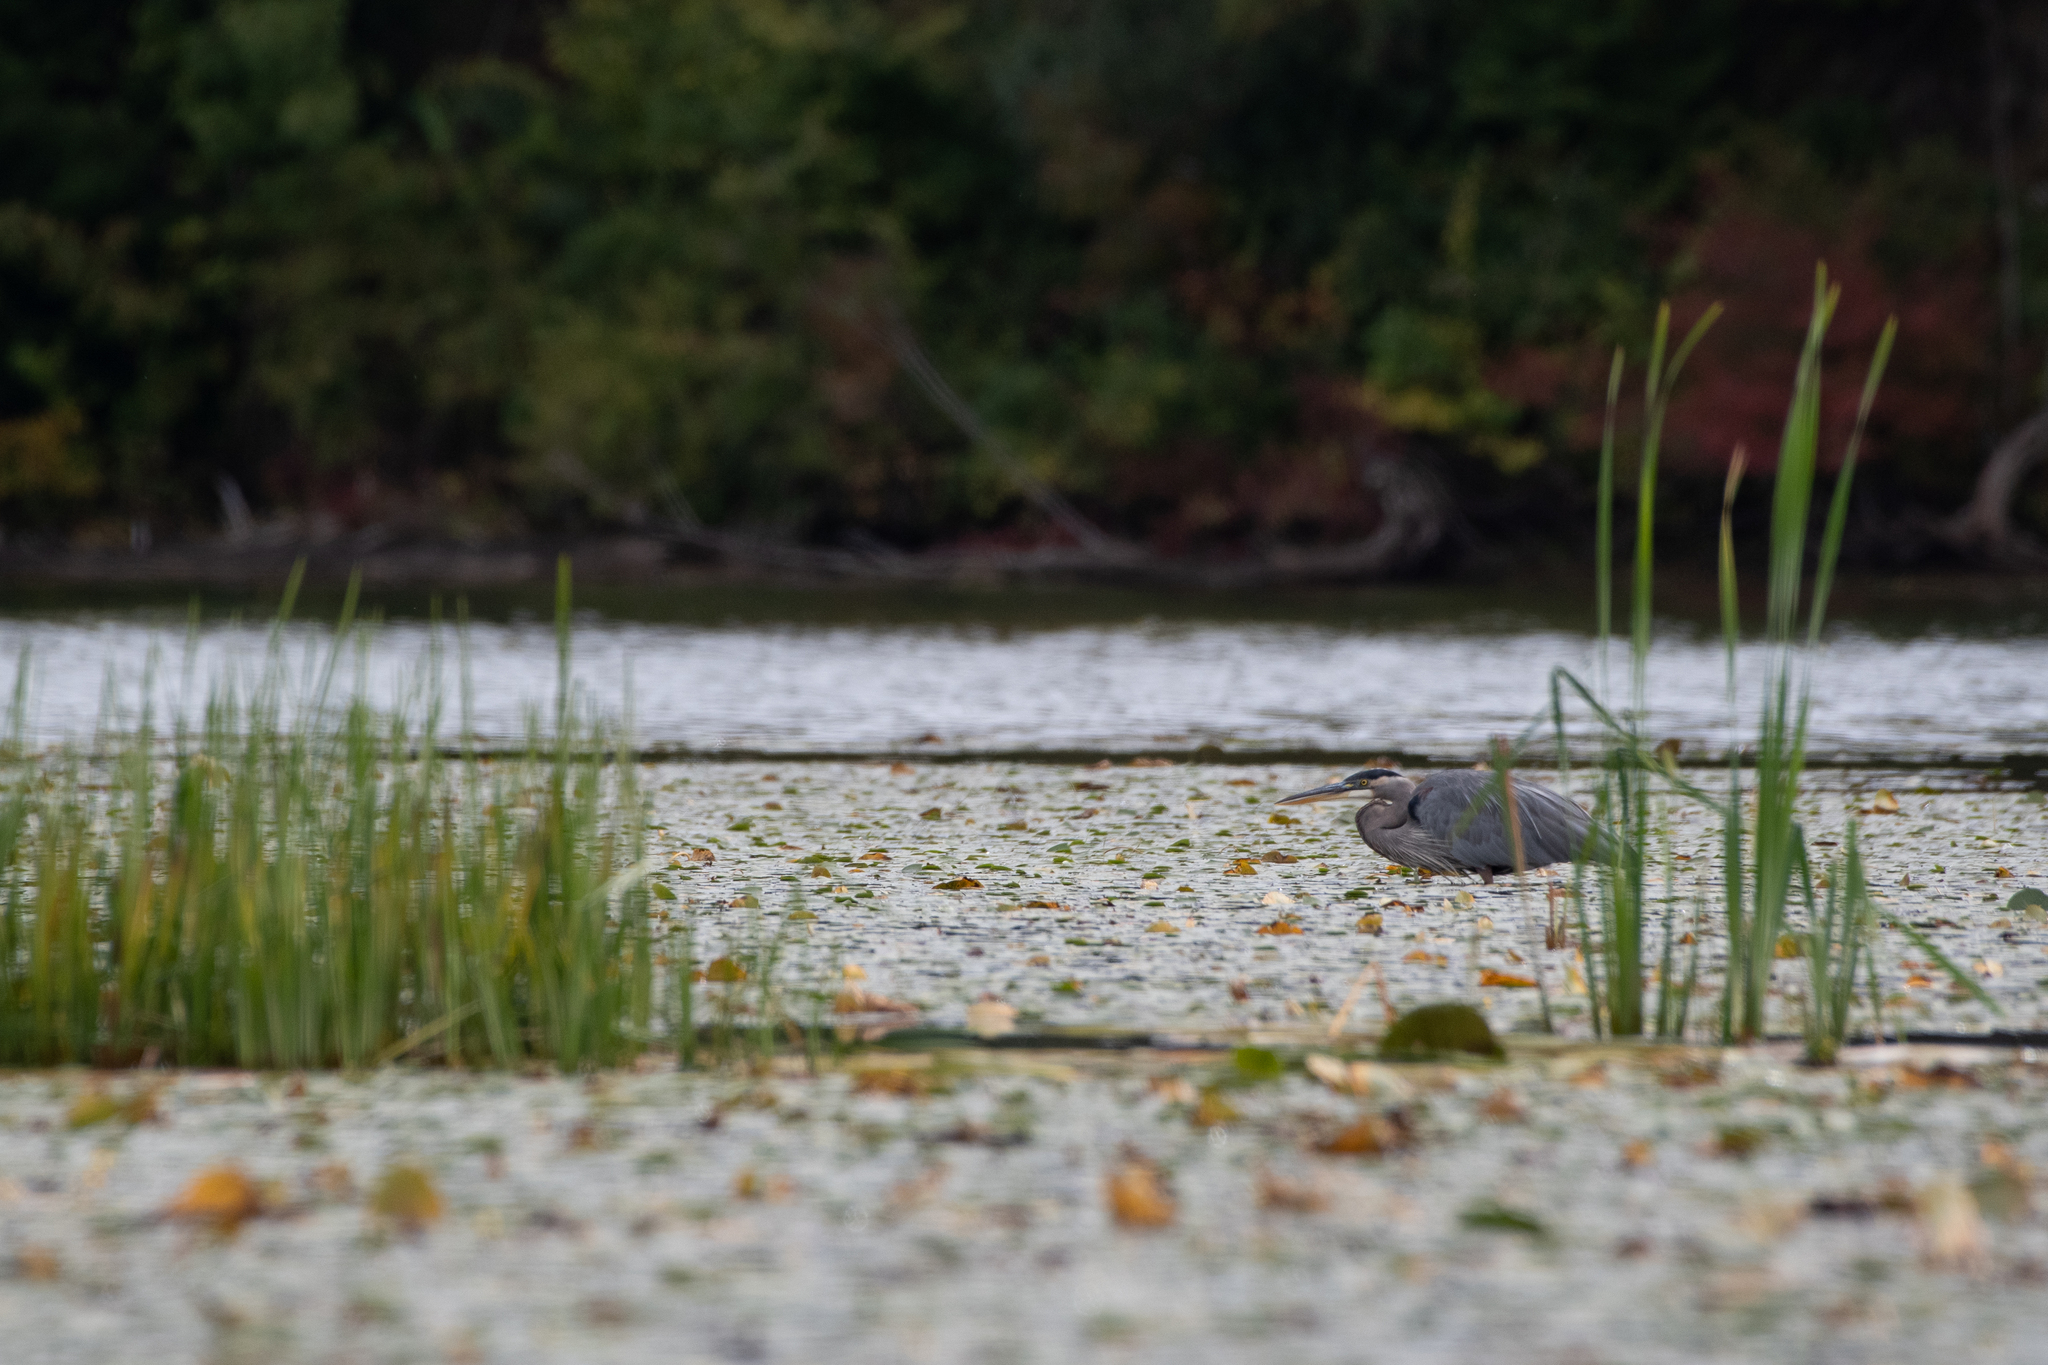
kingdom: Animalia
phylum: Chordata
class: Aves
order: Pelecaniformes
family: Ardeidae
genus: Ardea
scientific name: Ardea herodias
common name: Great blue heron
